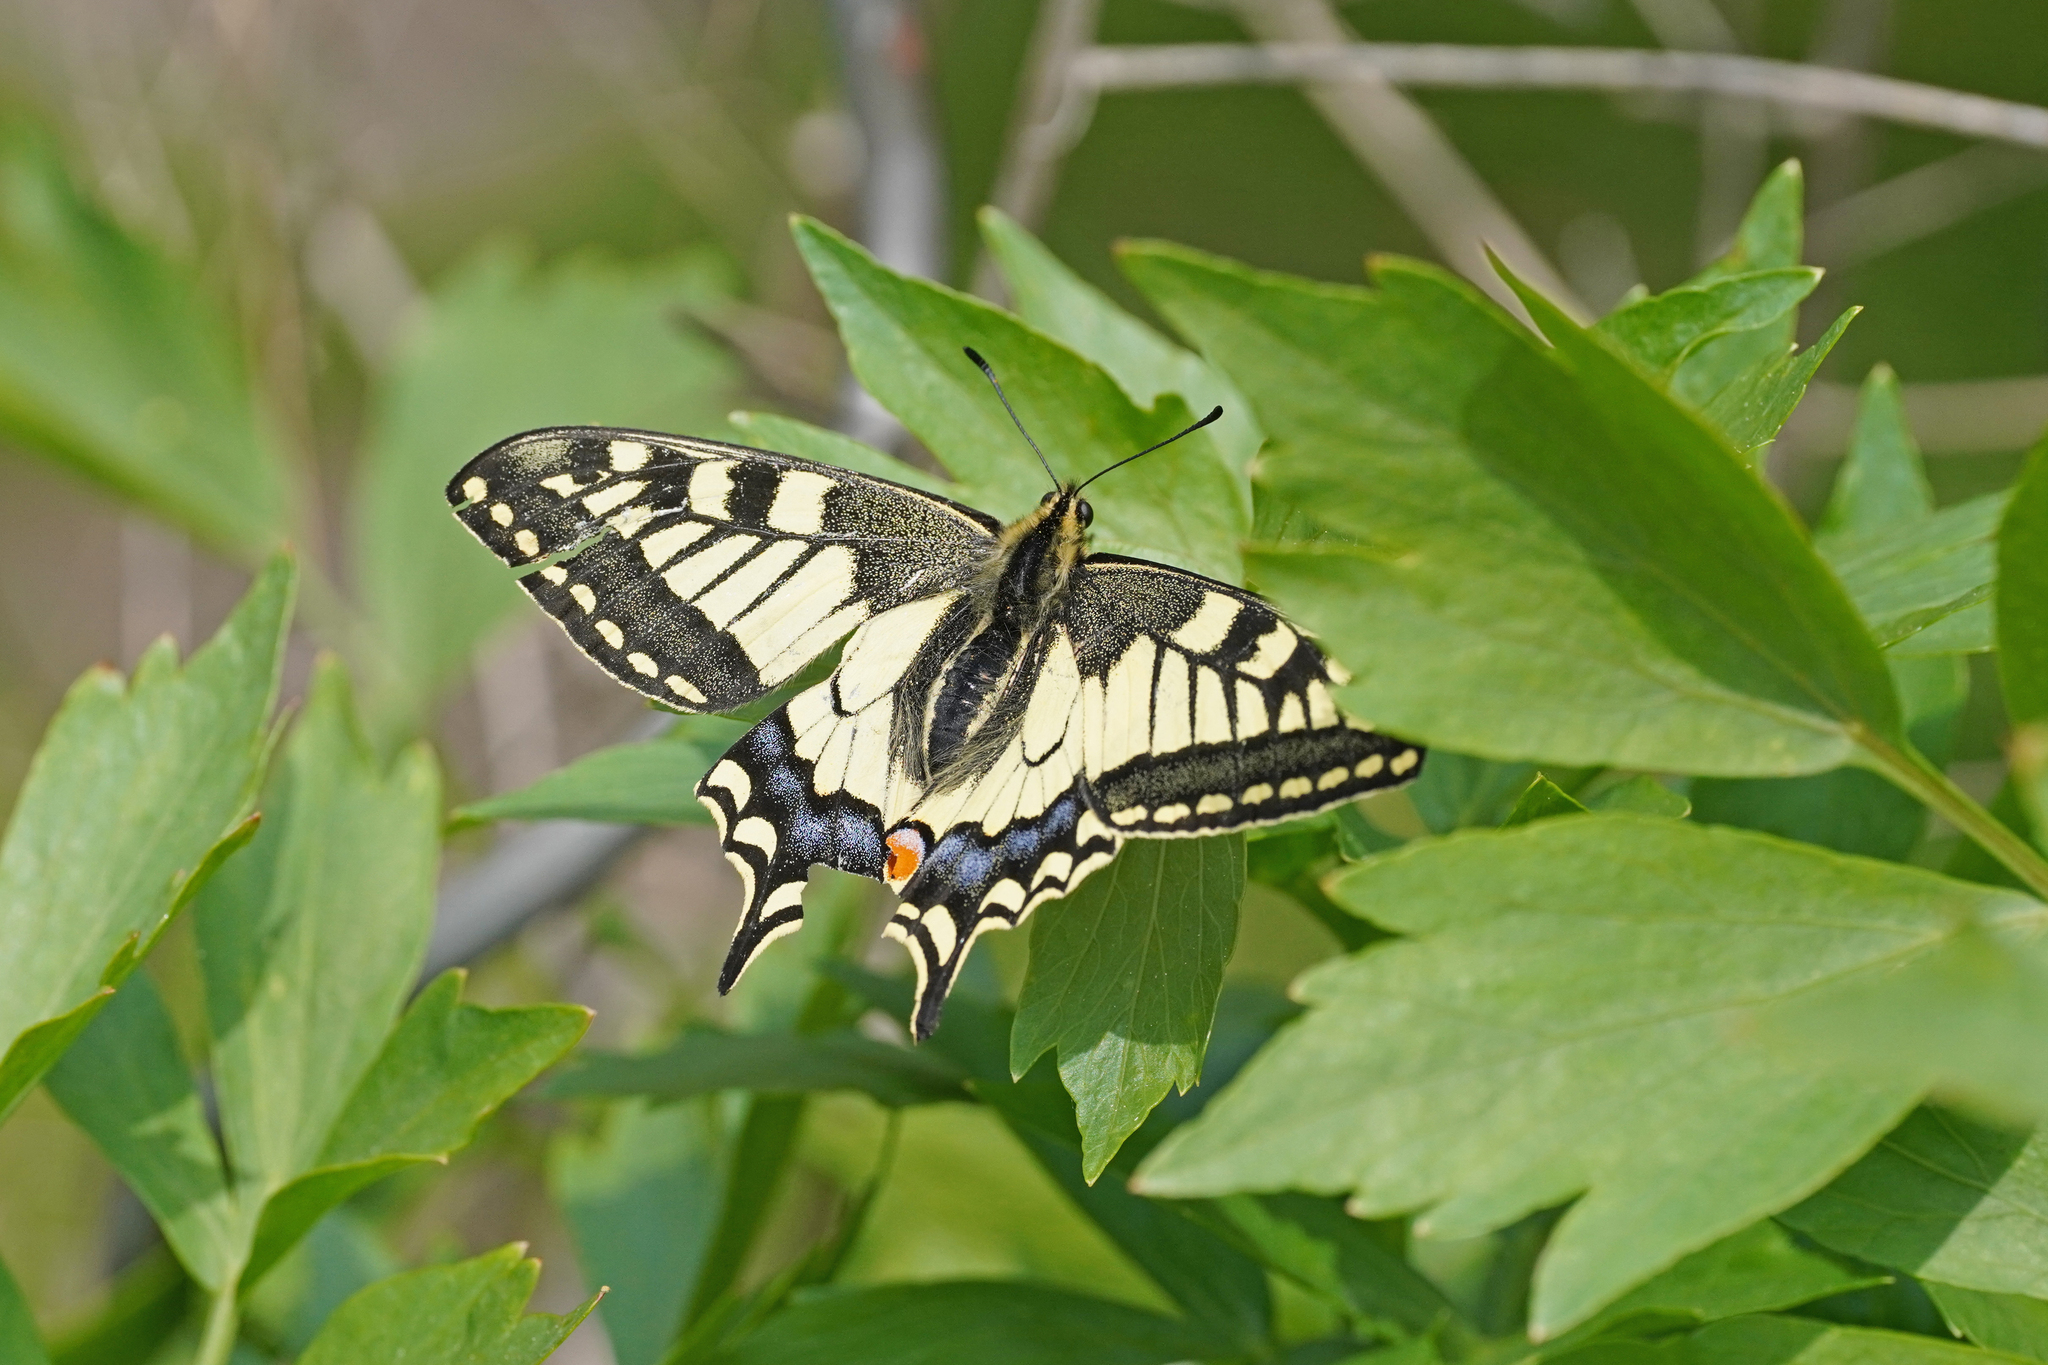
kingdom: Animalia
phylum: Arthropoda
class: Insecta
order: Lepidoptera
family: Papilionidae
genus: Papilio
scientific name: Papilio machaon
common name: Swallowtail
